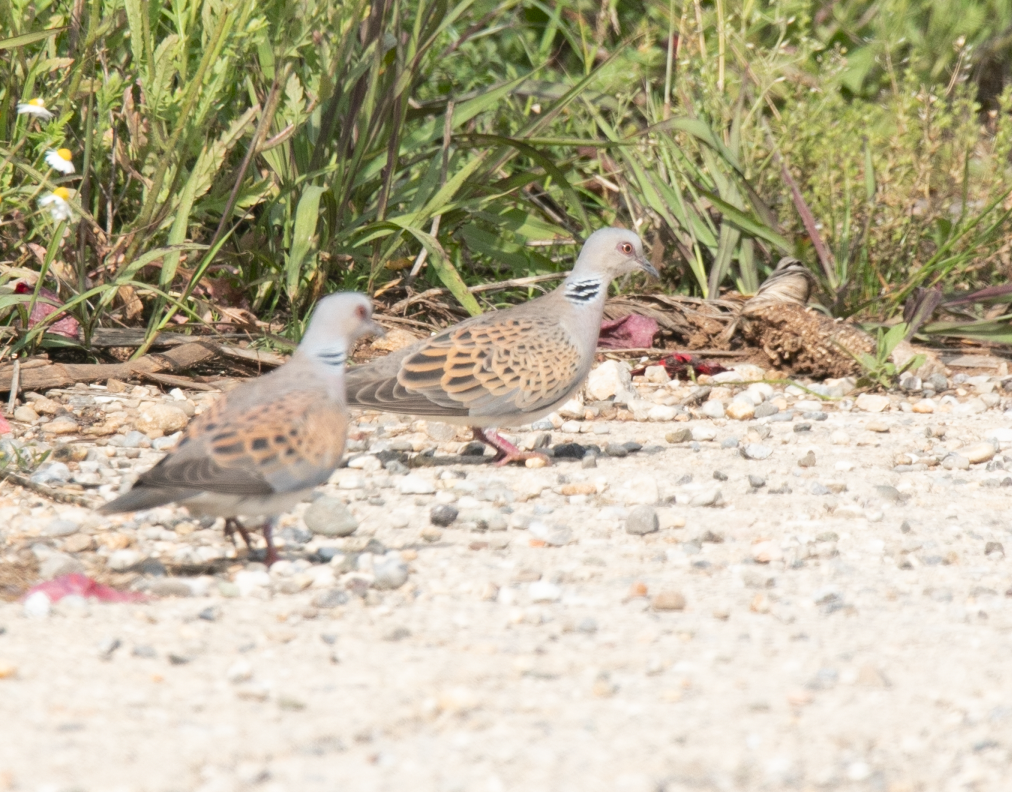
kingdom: Animalia
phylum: Chordata
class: Aves
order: Columbiformes
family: Columbidae
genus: Streptopelia
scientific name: Streptopelia turtur
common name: European turtle dove
